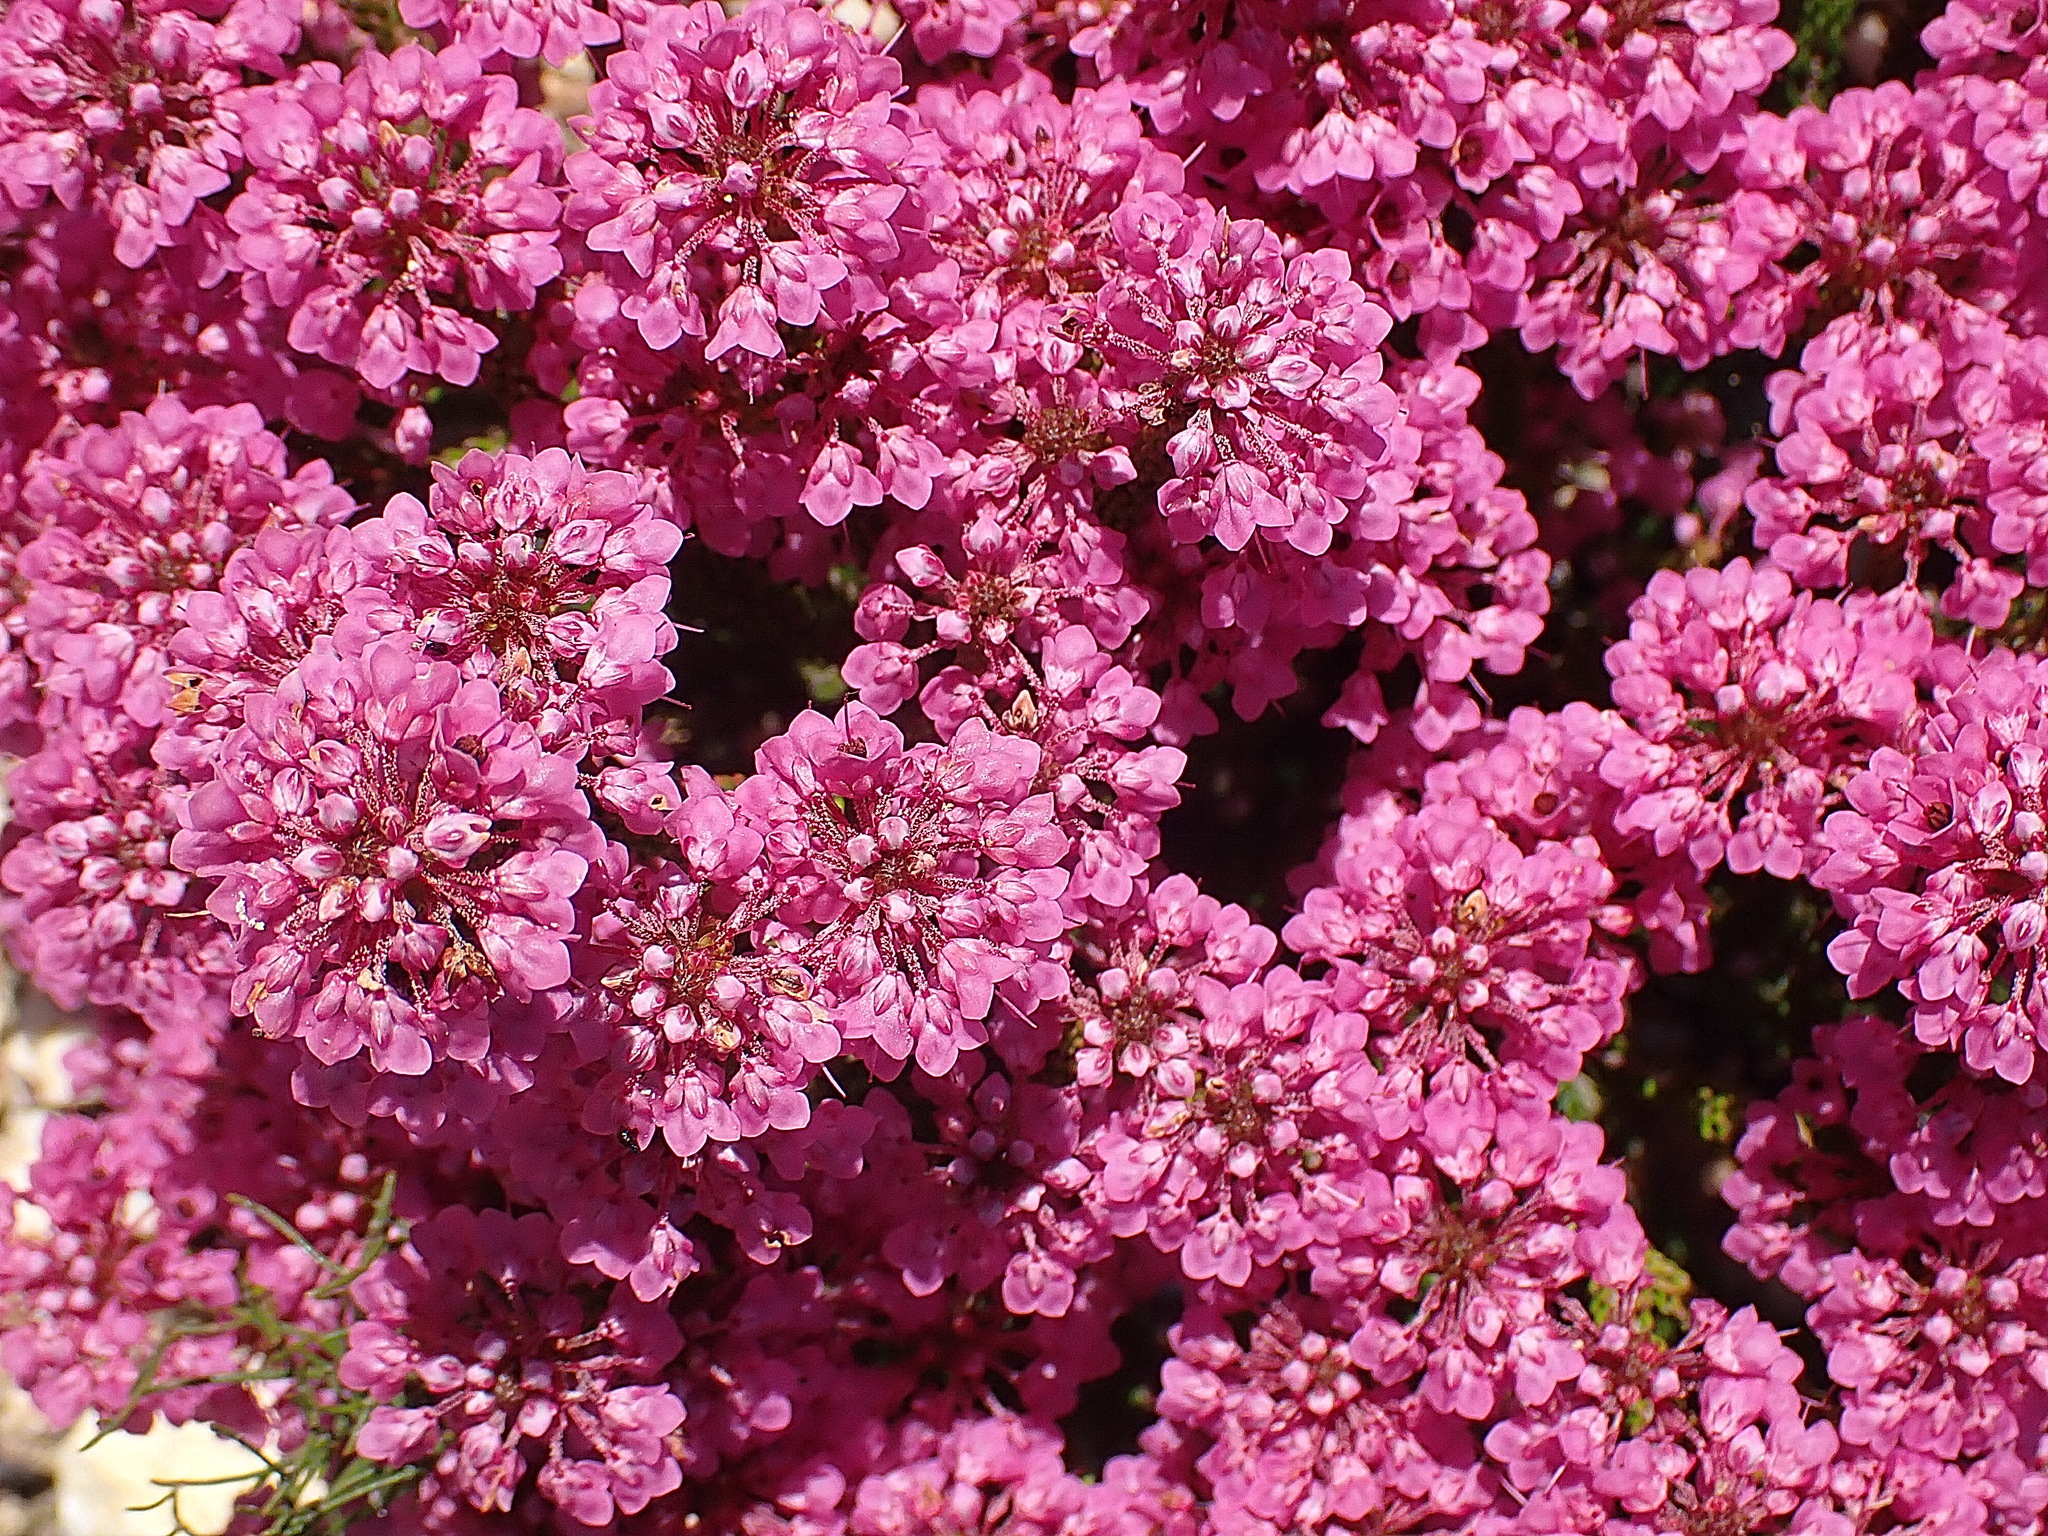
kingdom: Plantae
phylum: Tracheophyta
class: Magnoliopsida
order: Ericales
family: Ericaceae
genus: Erica
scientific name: Erica seriphiifolia
